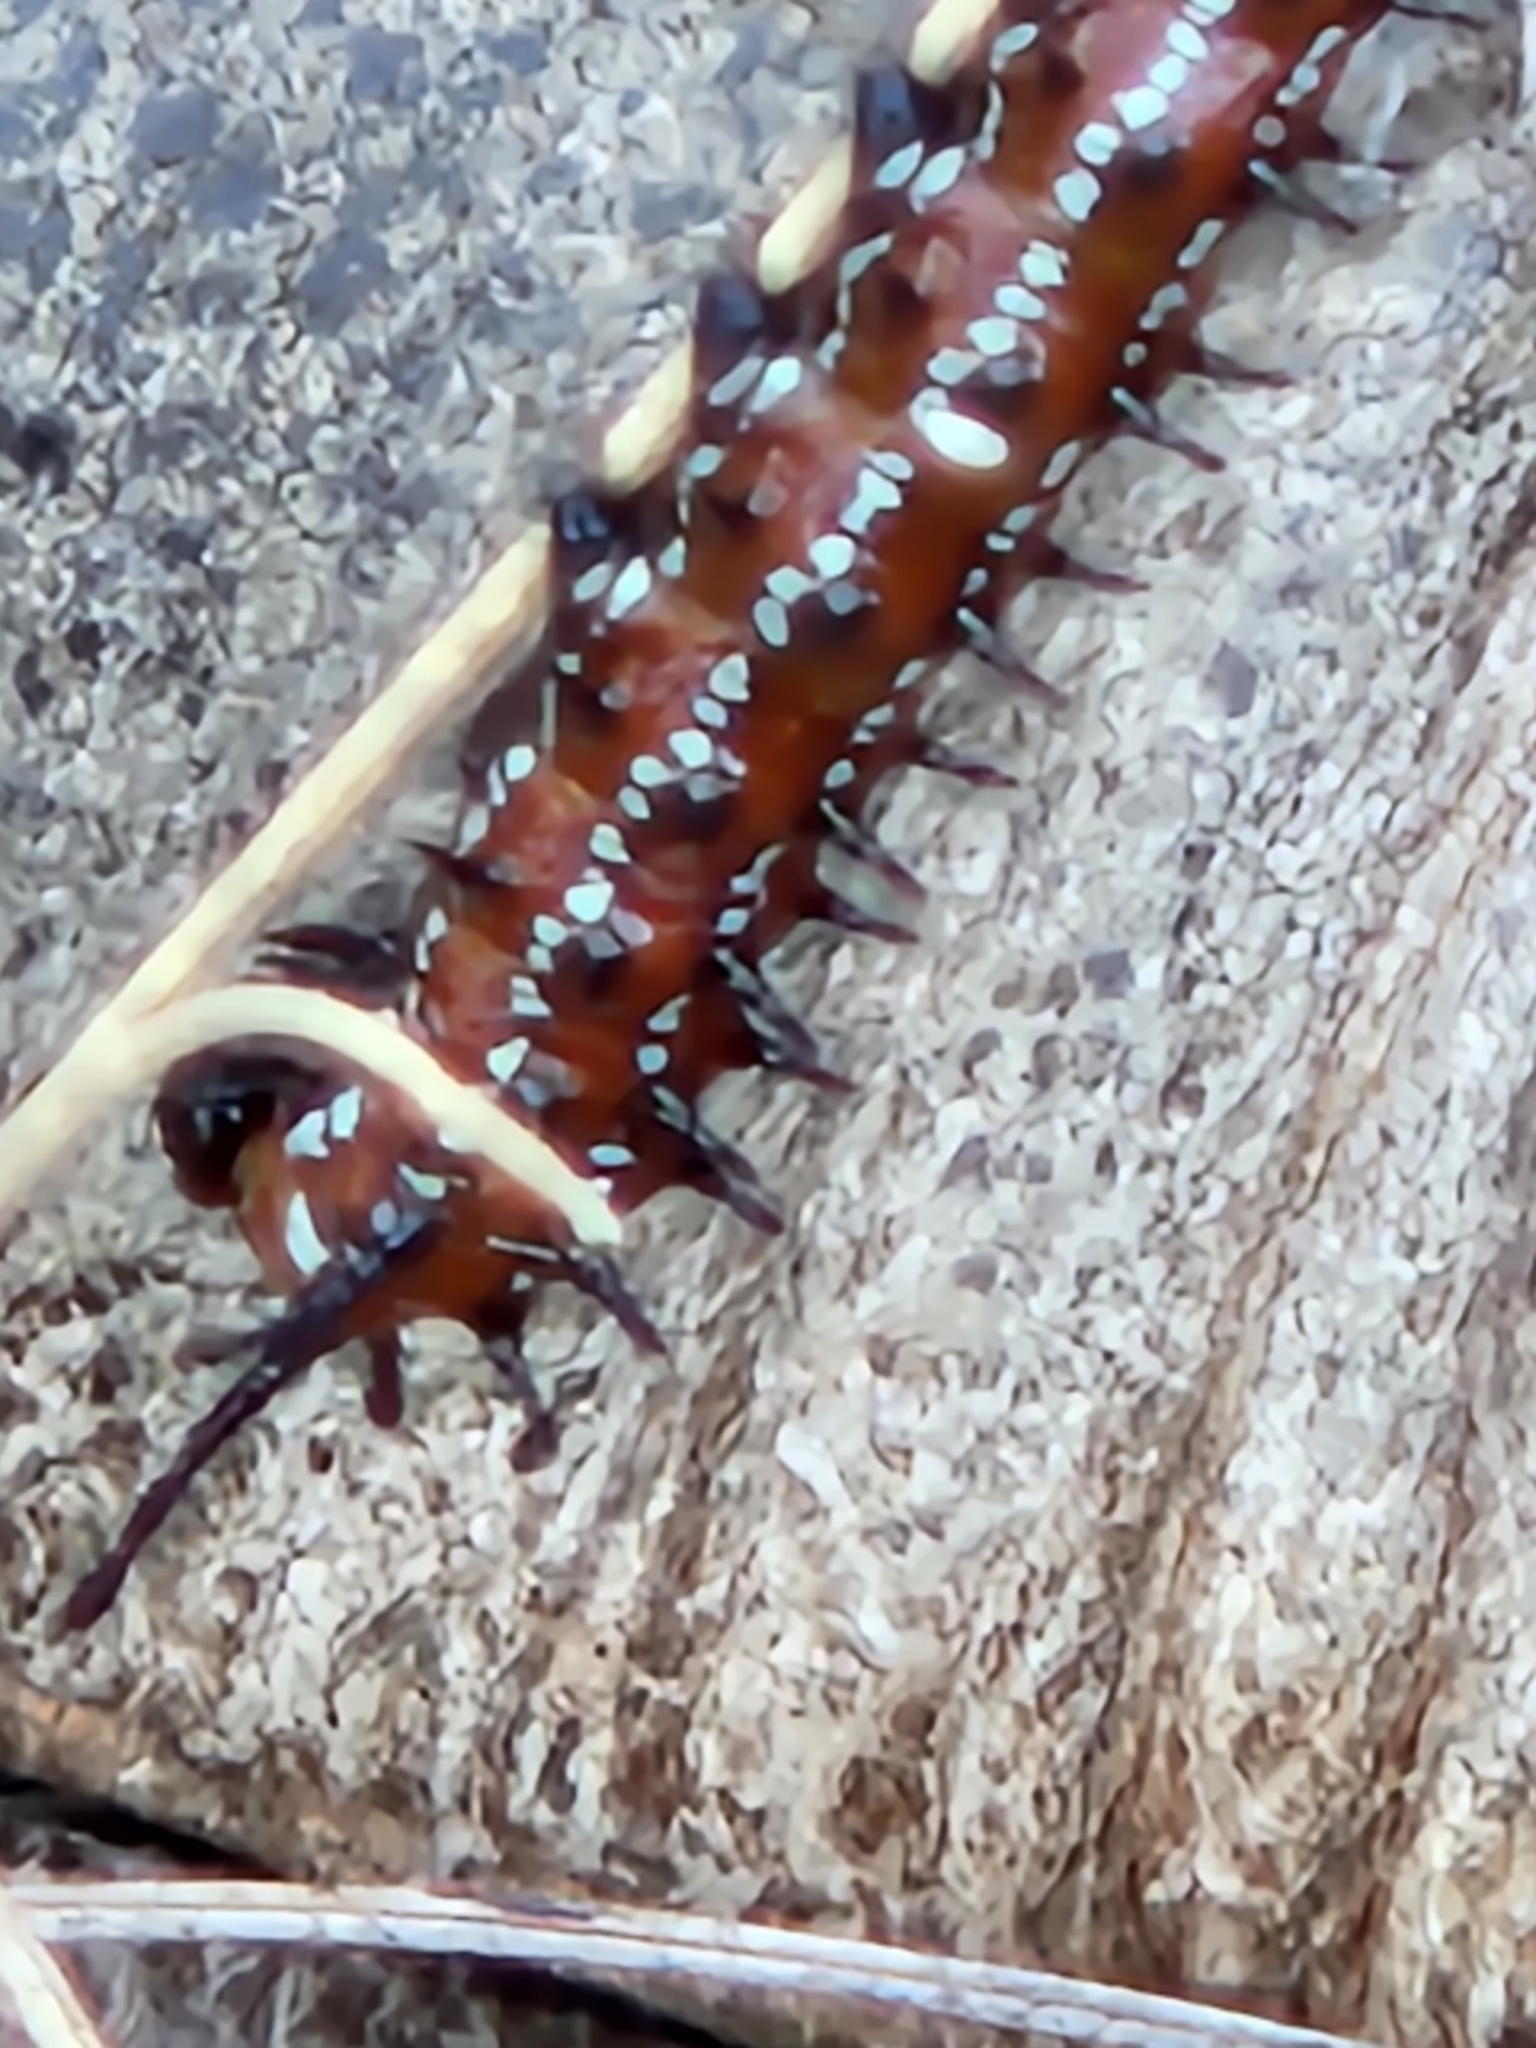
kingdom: Animalia
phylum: Arthropoda
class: Insecta
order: Lepidoptera
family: Nymphalidae
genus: Euptoieta
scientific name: Euptoieta claudia
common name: Variegated fritillary
